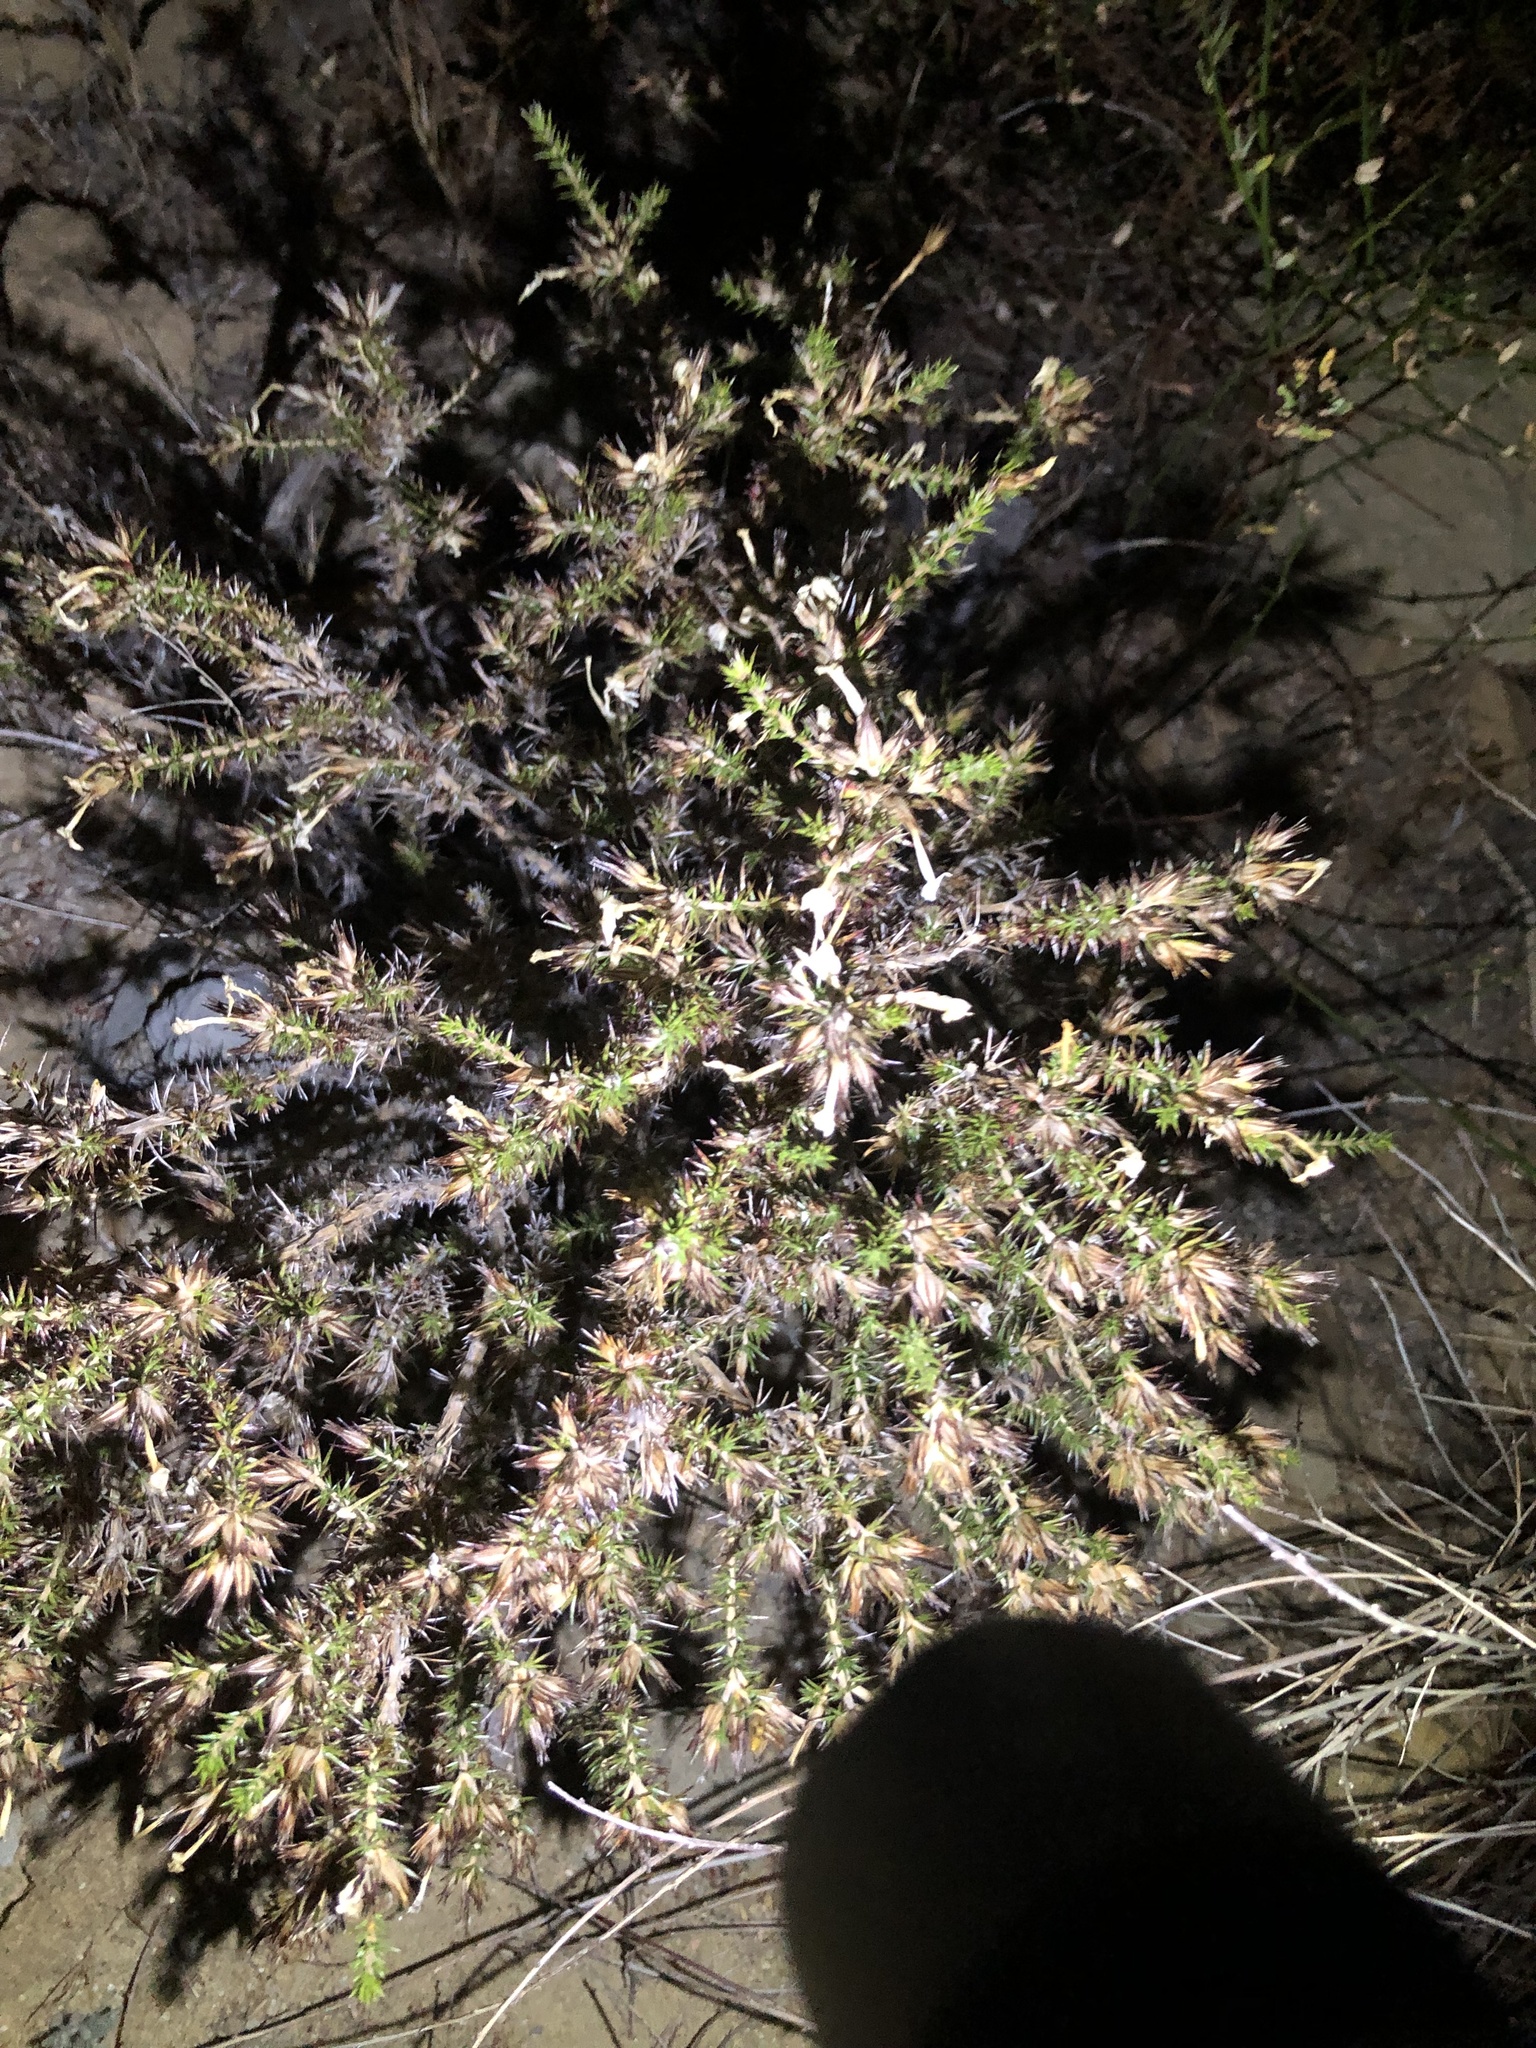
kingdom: Plantae
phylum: Tracheophyta
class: Magnoliopsida
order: Ericales
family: Polemoniaceae
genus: Linanthus
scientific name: Linanthus californicus
